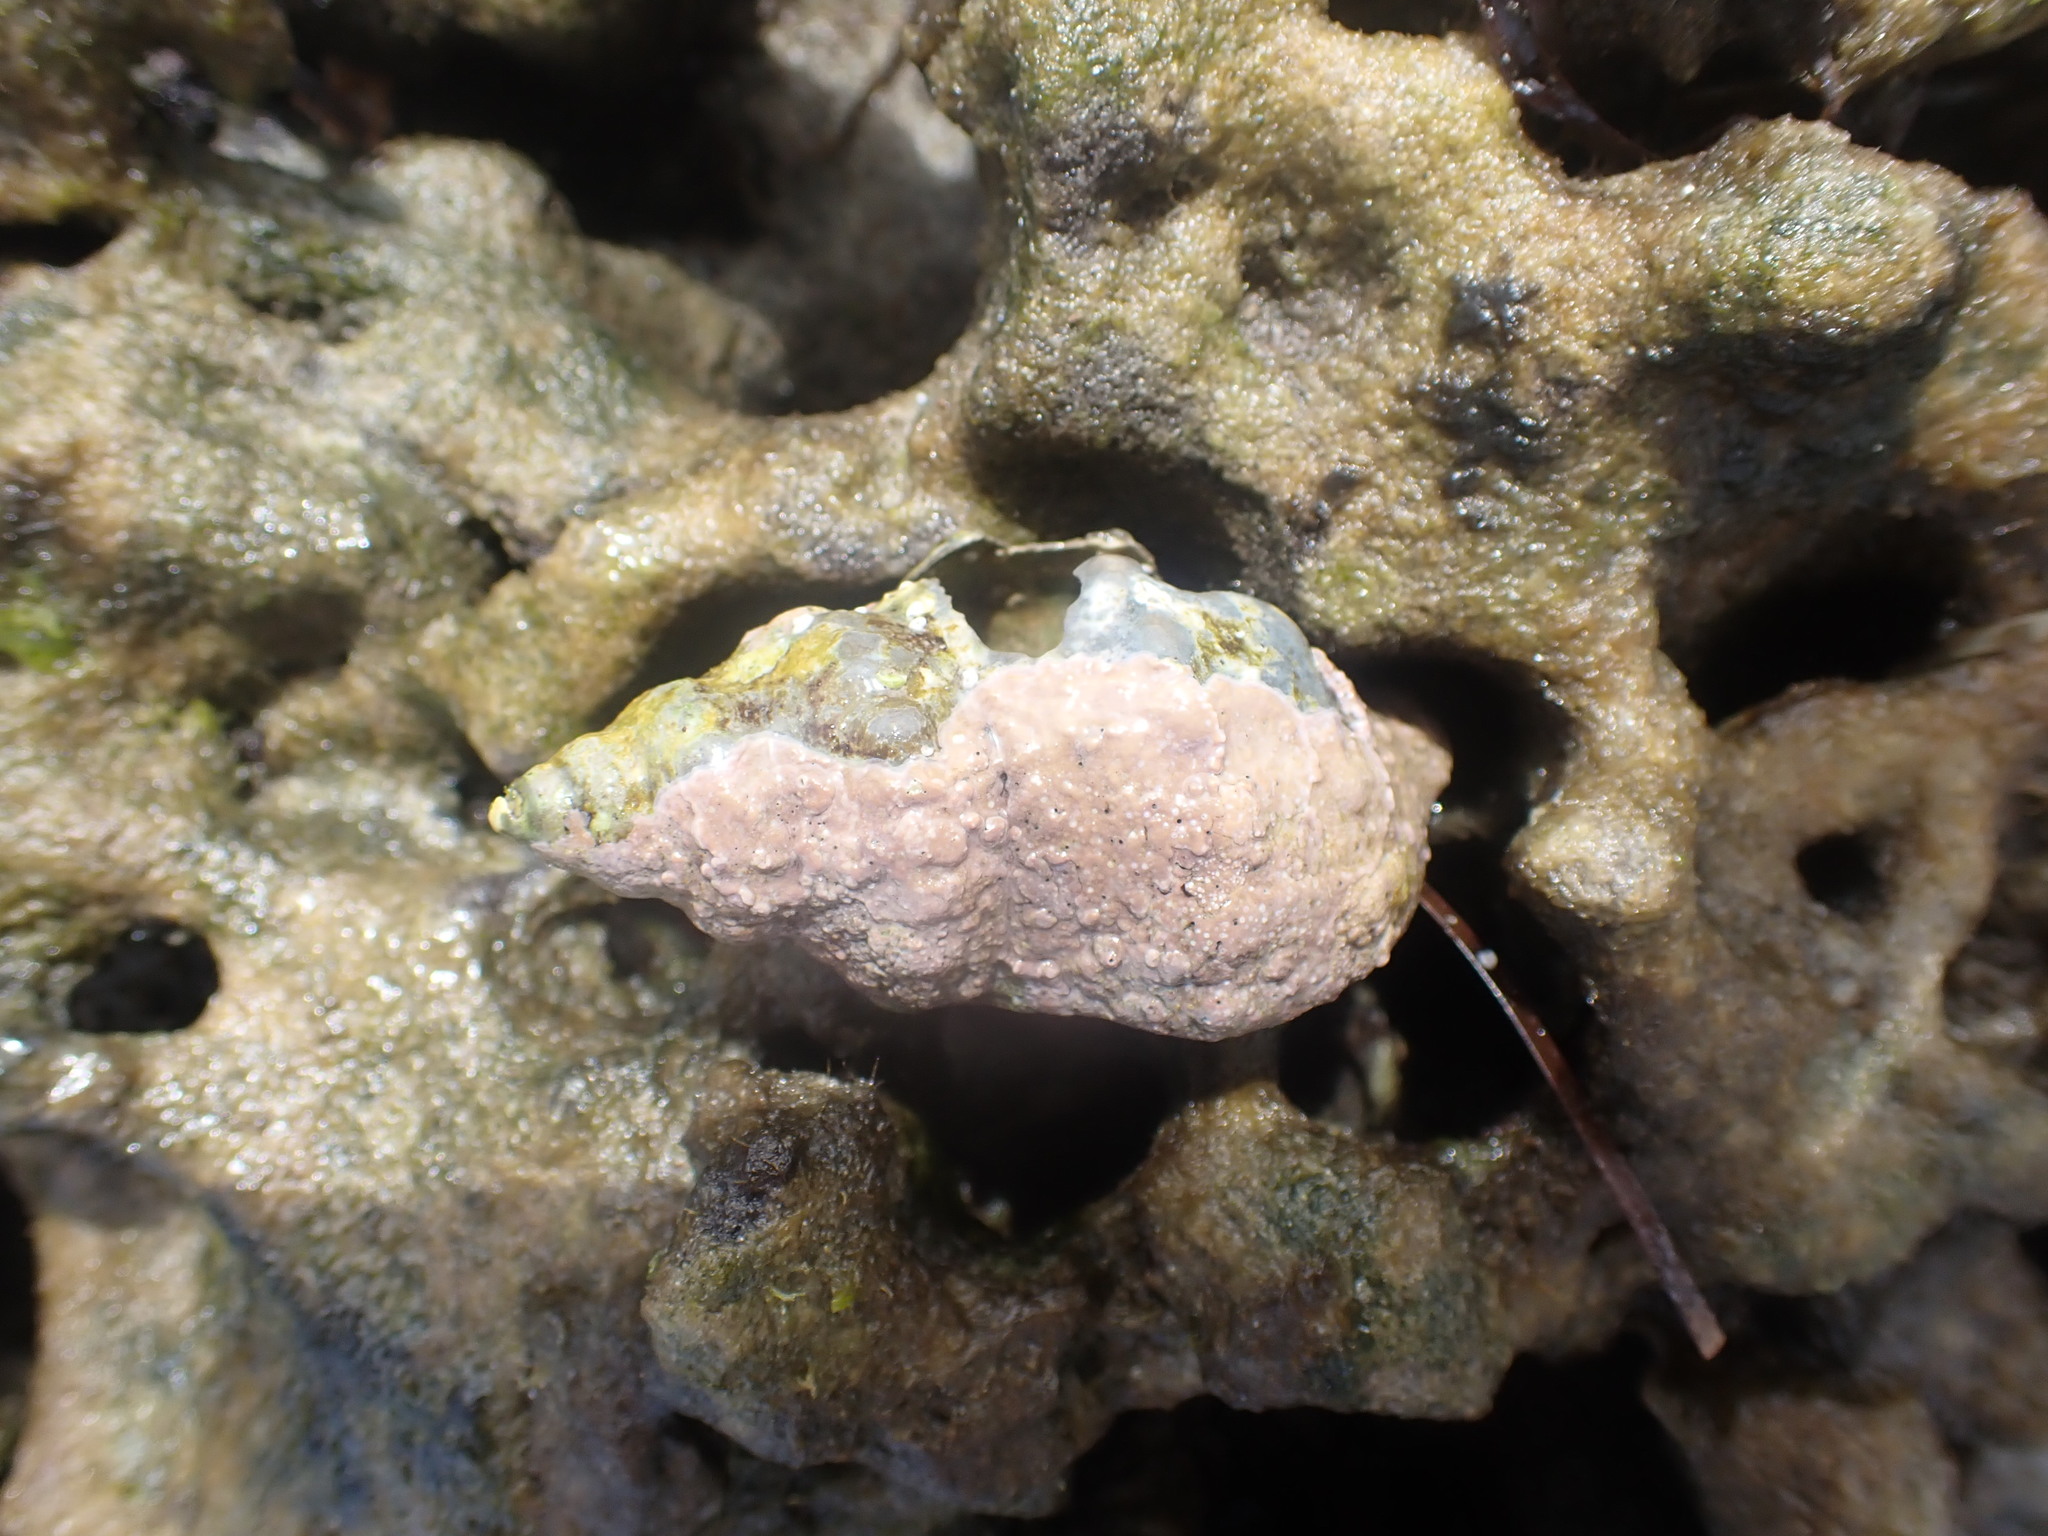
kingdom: Animalia
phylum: Mollusca
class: Gastropoda
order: Neogastropoda
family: Prosiphonidae
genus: Austrofusus
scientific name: Austrofusus glans
